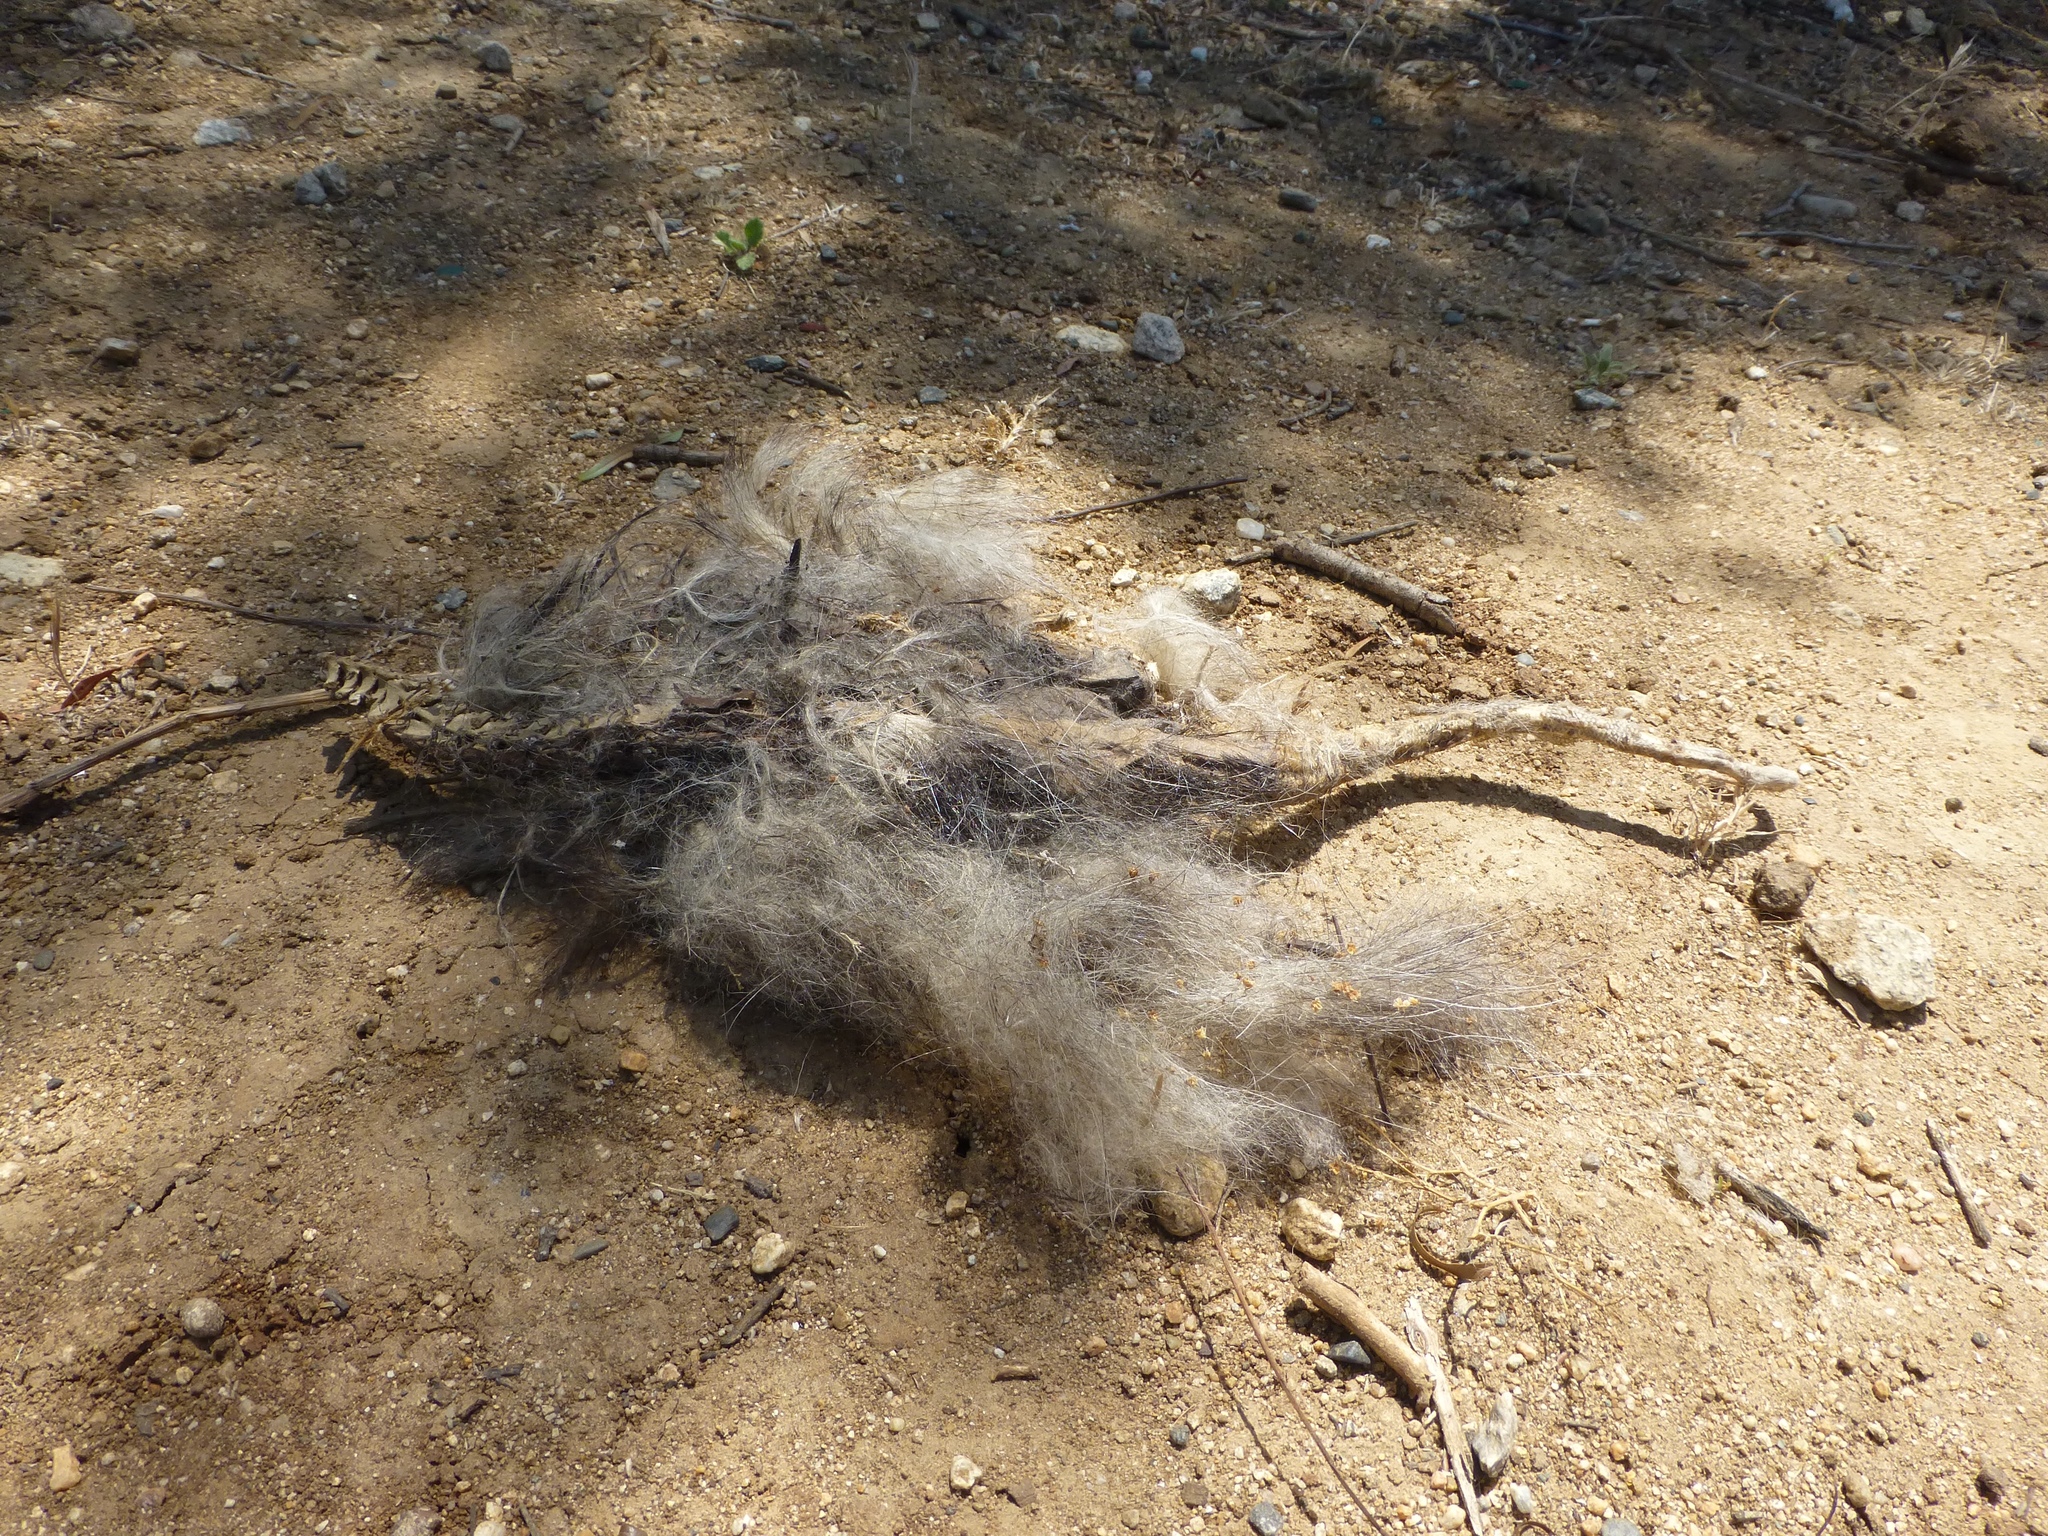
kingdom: Animalia
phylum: Chordata
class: Mammalia
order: Didelphimorphia
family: Didelphidae
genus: Didelphis
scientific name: Didelphis virginiana
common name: Virginia opossum
